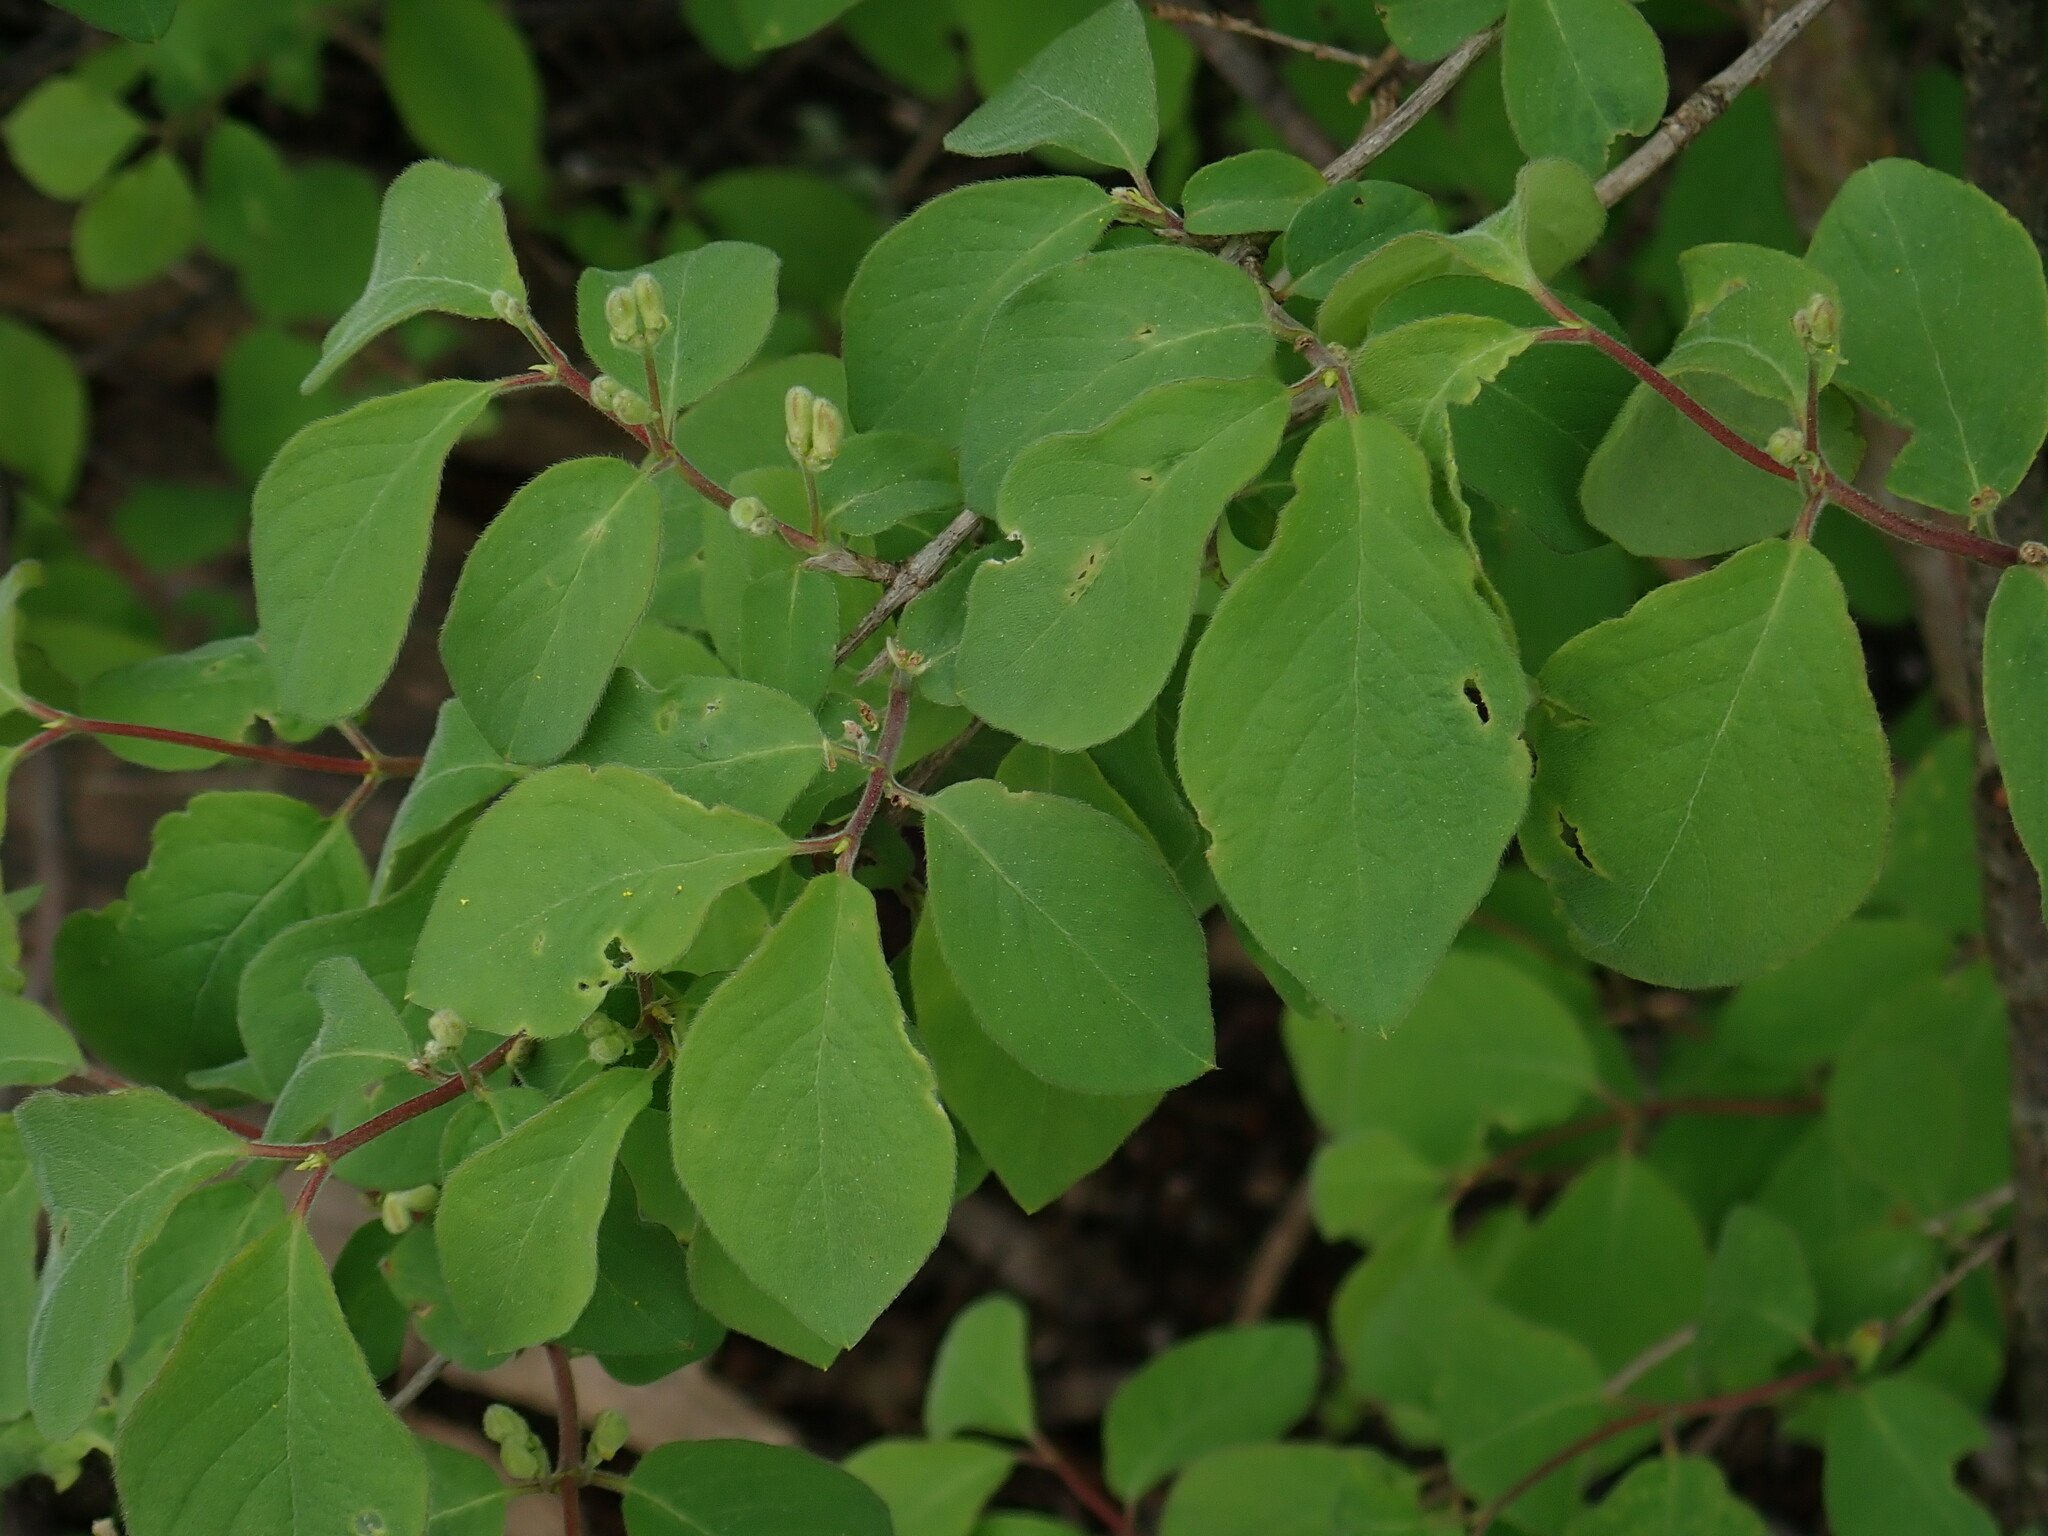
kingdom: Plantae
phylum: Tracheophyta
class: Magnoliopsida
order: Dipsacales
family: Caprifoliaceae
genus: Lonicera
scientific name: Lonicera xylosteum
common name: Fly honeysuckle
